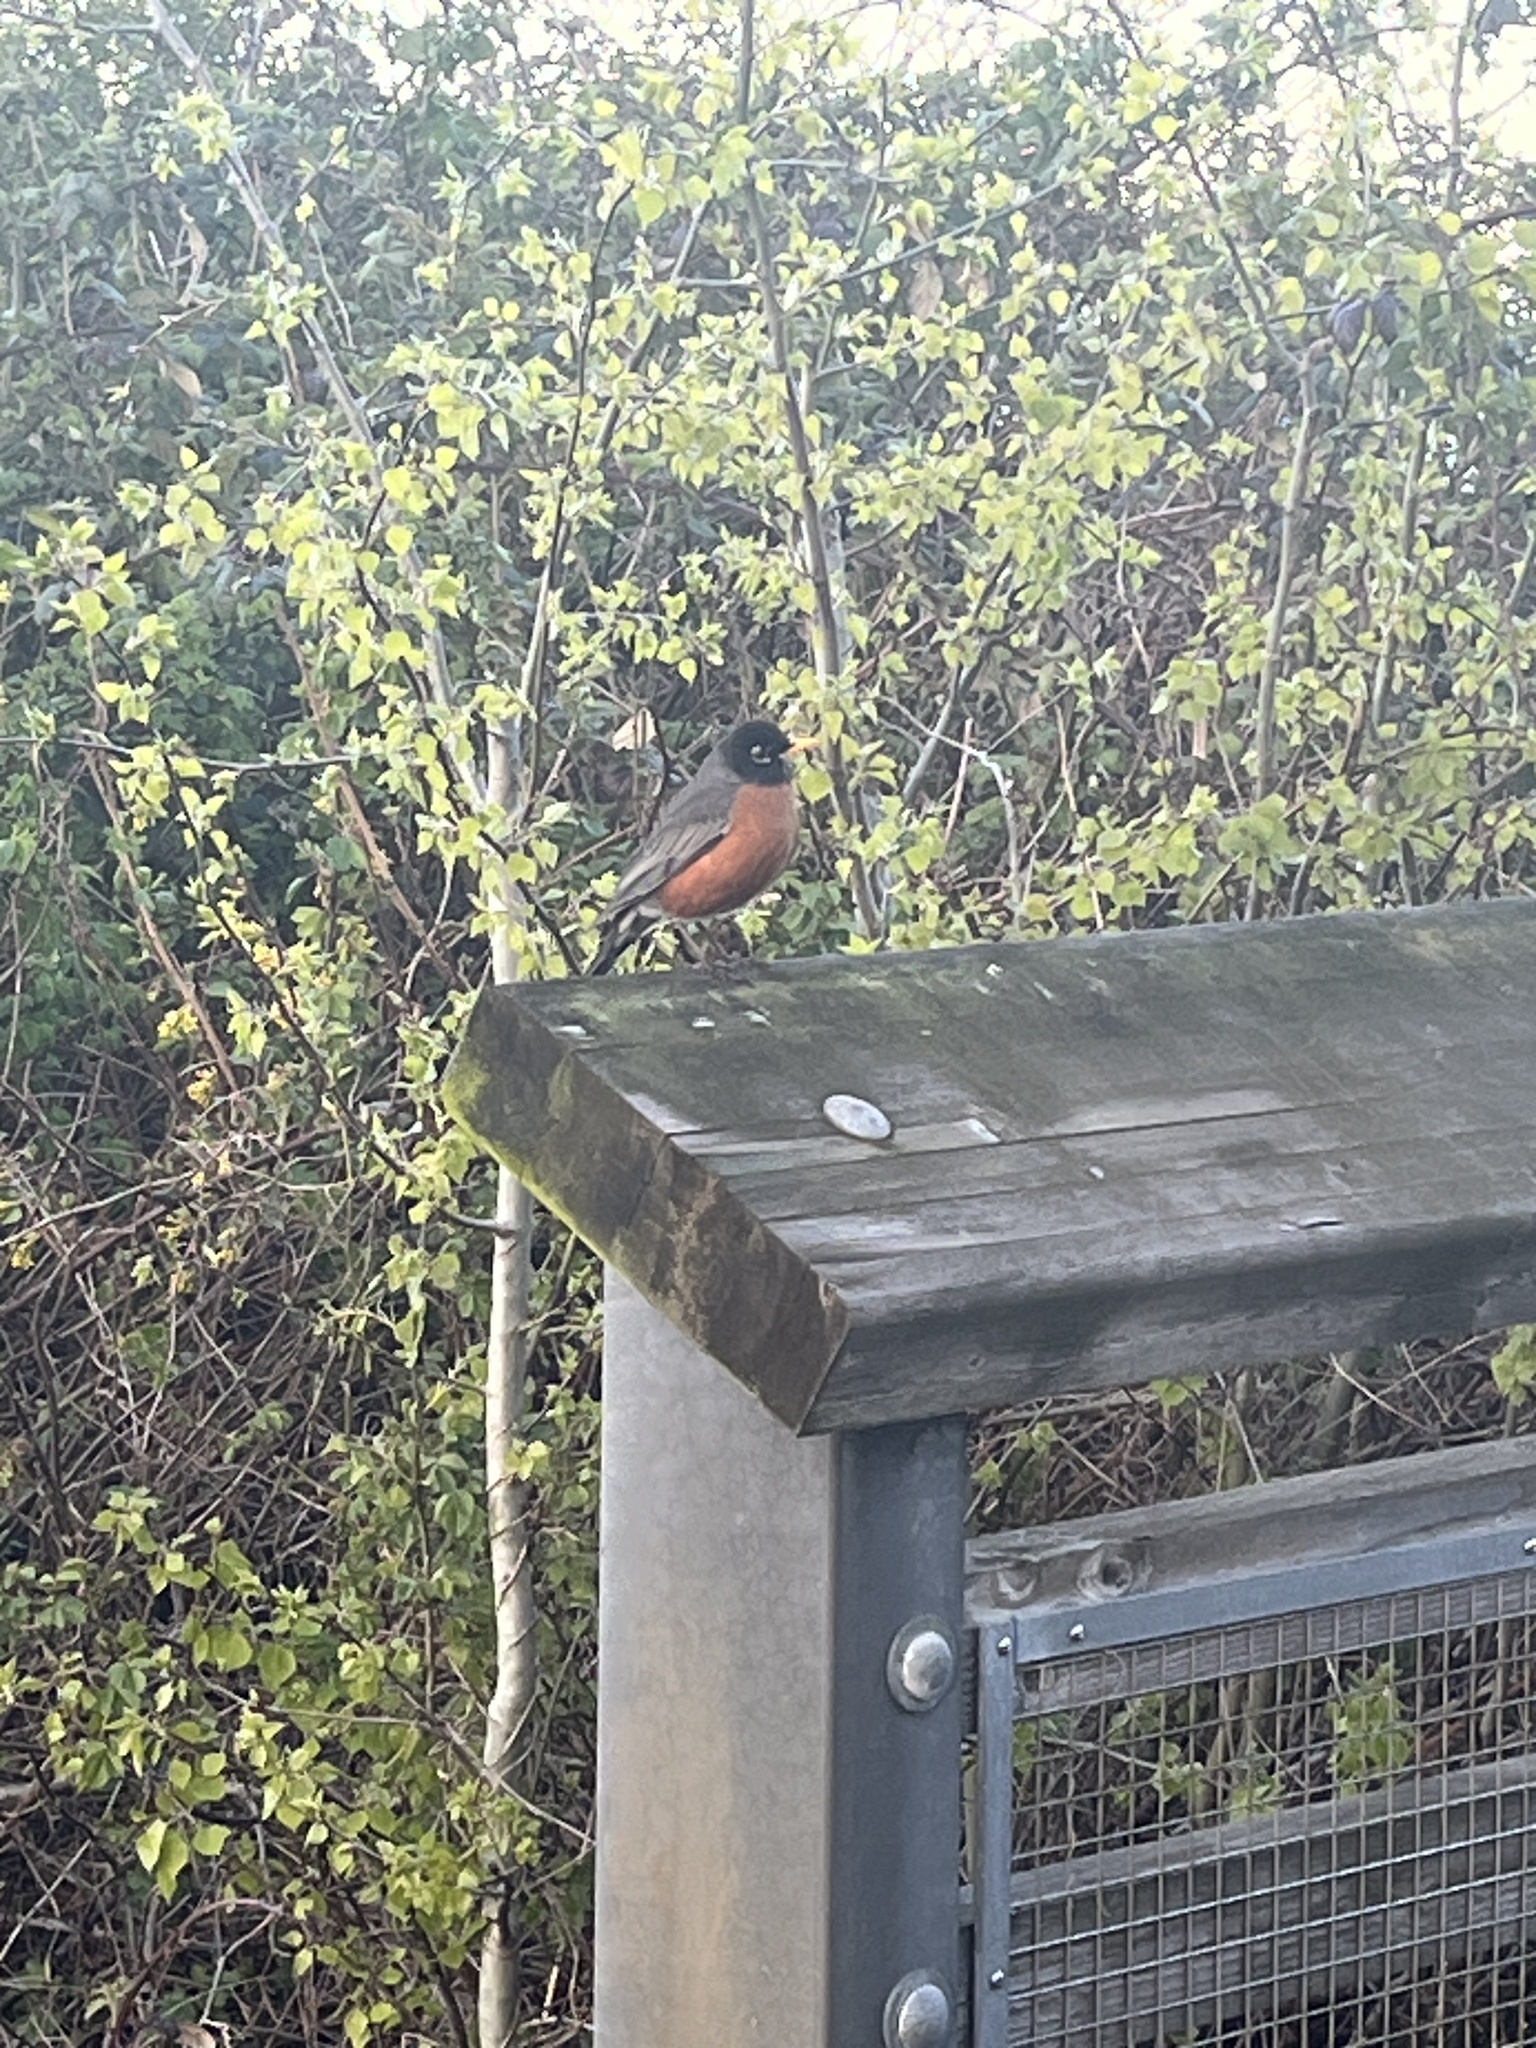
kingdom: Animalia
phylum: Chordata
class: Aves
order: Passeriformes
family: Turdidae
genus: Turdus
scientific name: Turdus migratorius
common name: American robin
